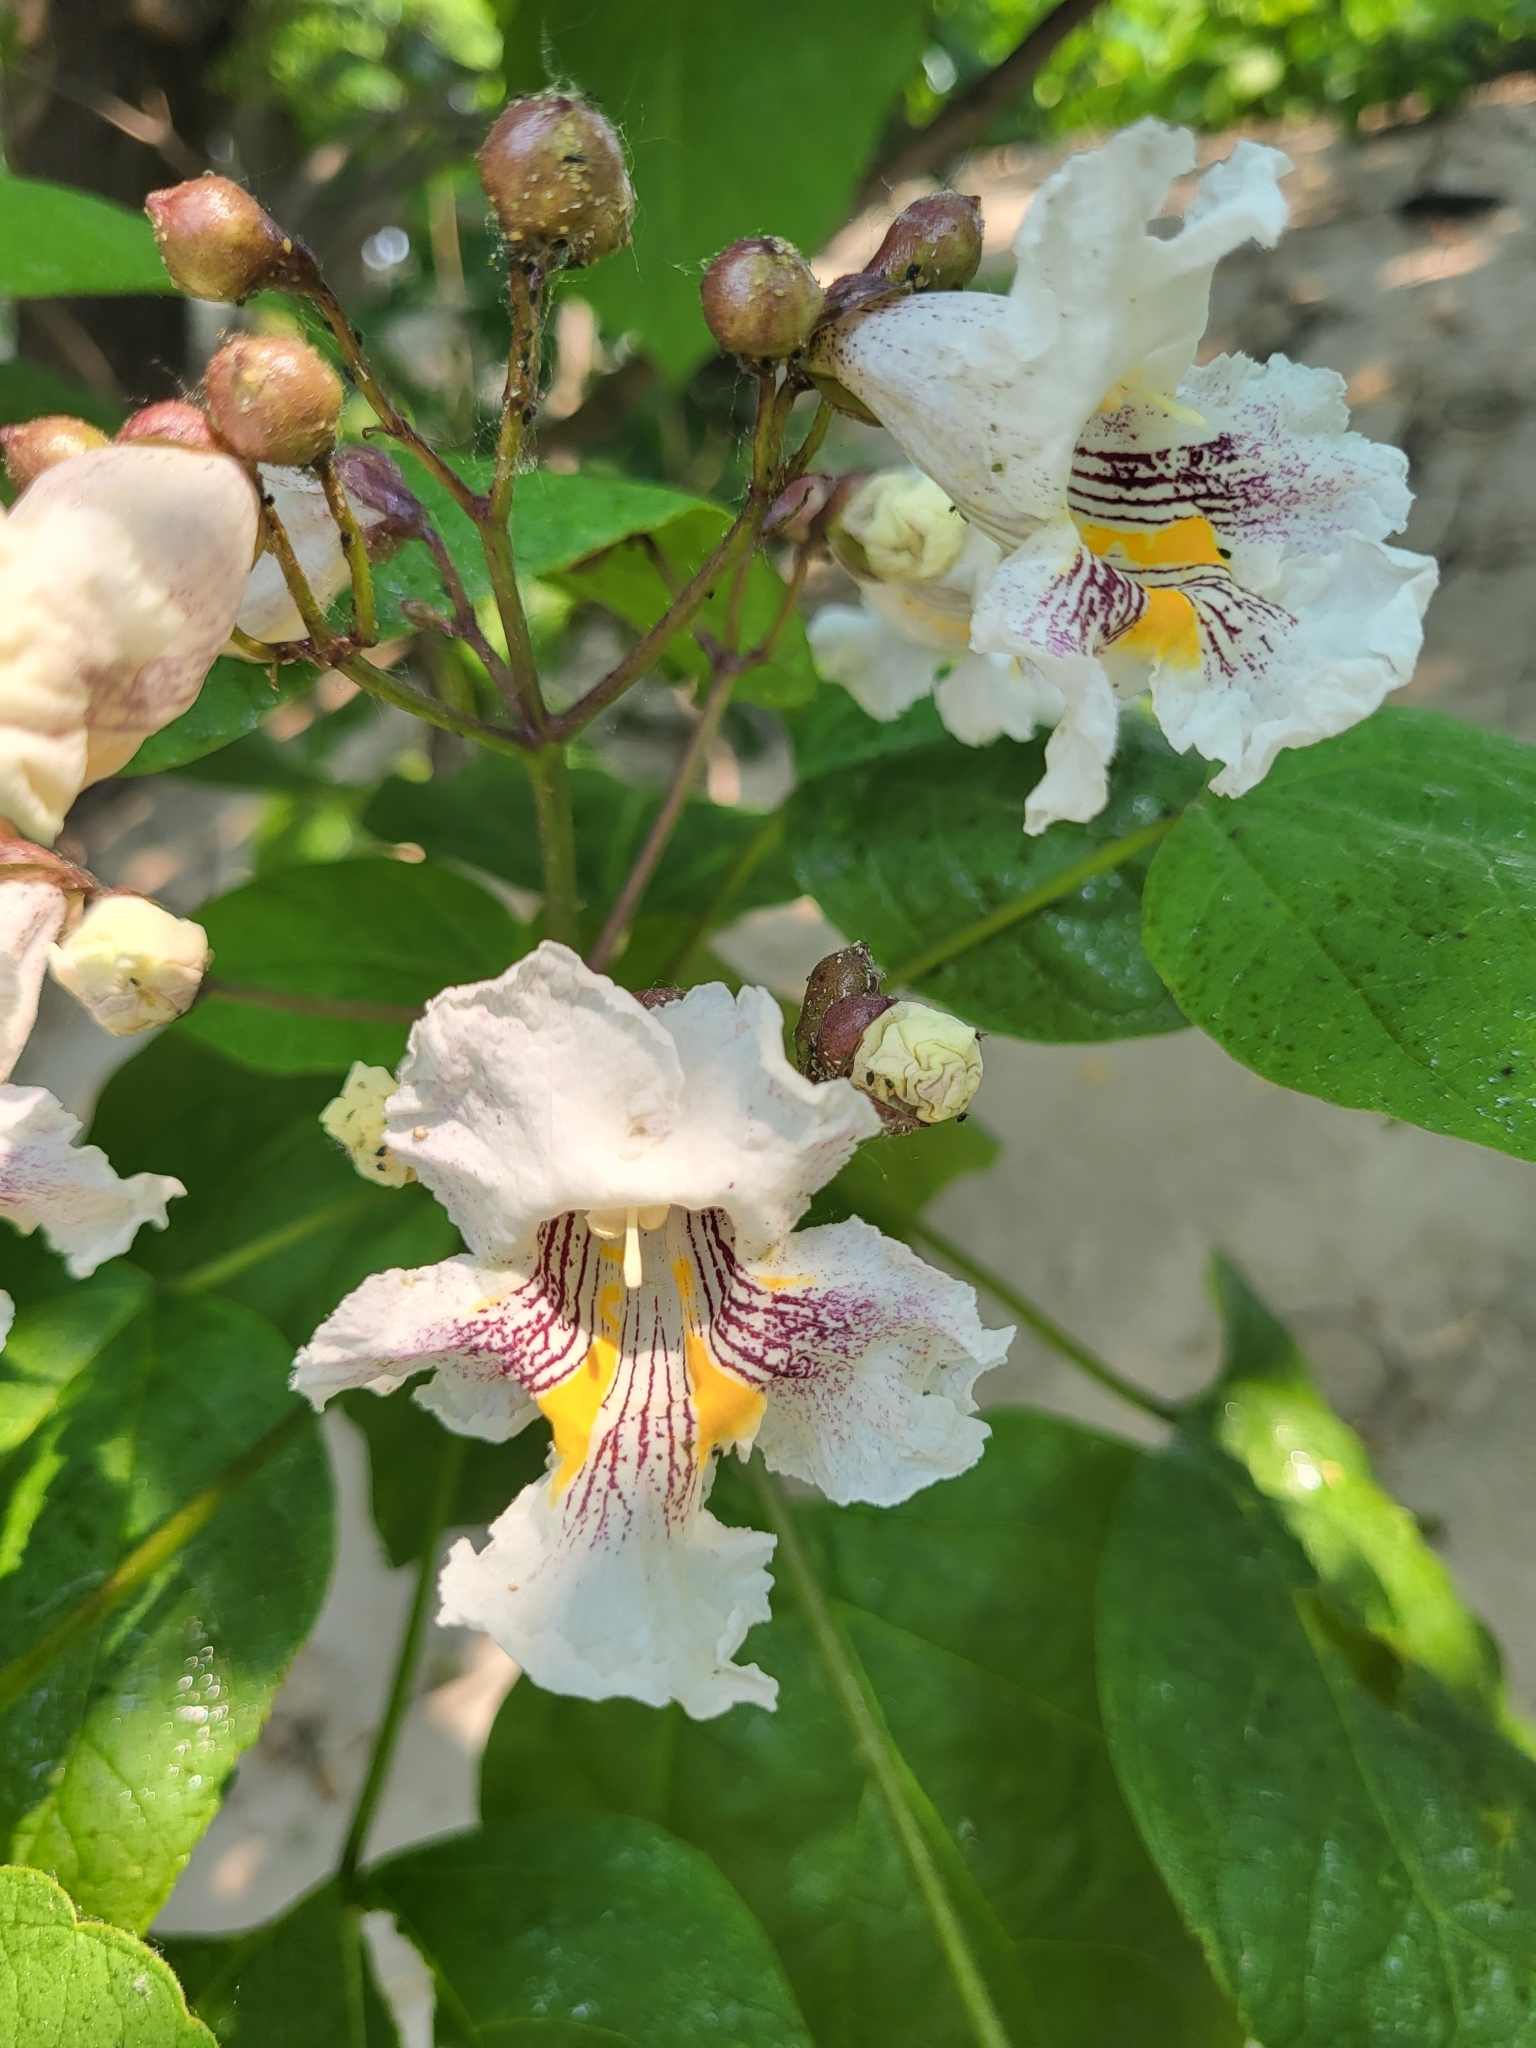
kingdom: Plantae
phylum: Tracheophyta
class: Magnoliopsida
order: Lamiales
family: Bignoniaceae
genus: Catalpa
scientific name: Catalpa speciosa
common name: Northern catalpa
